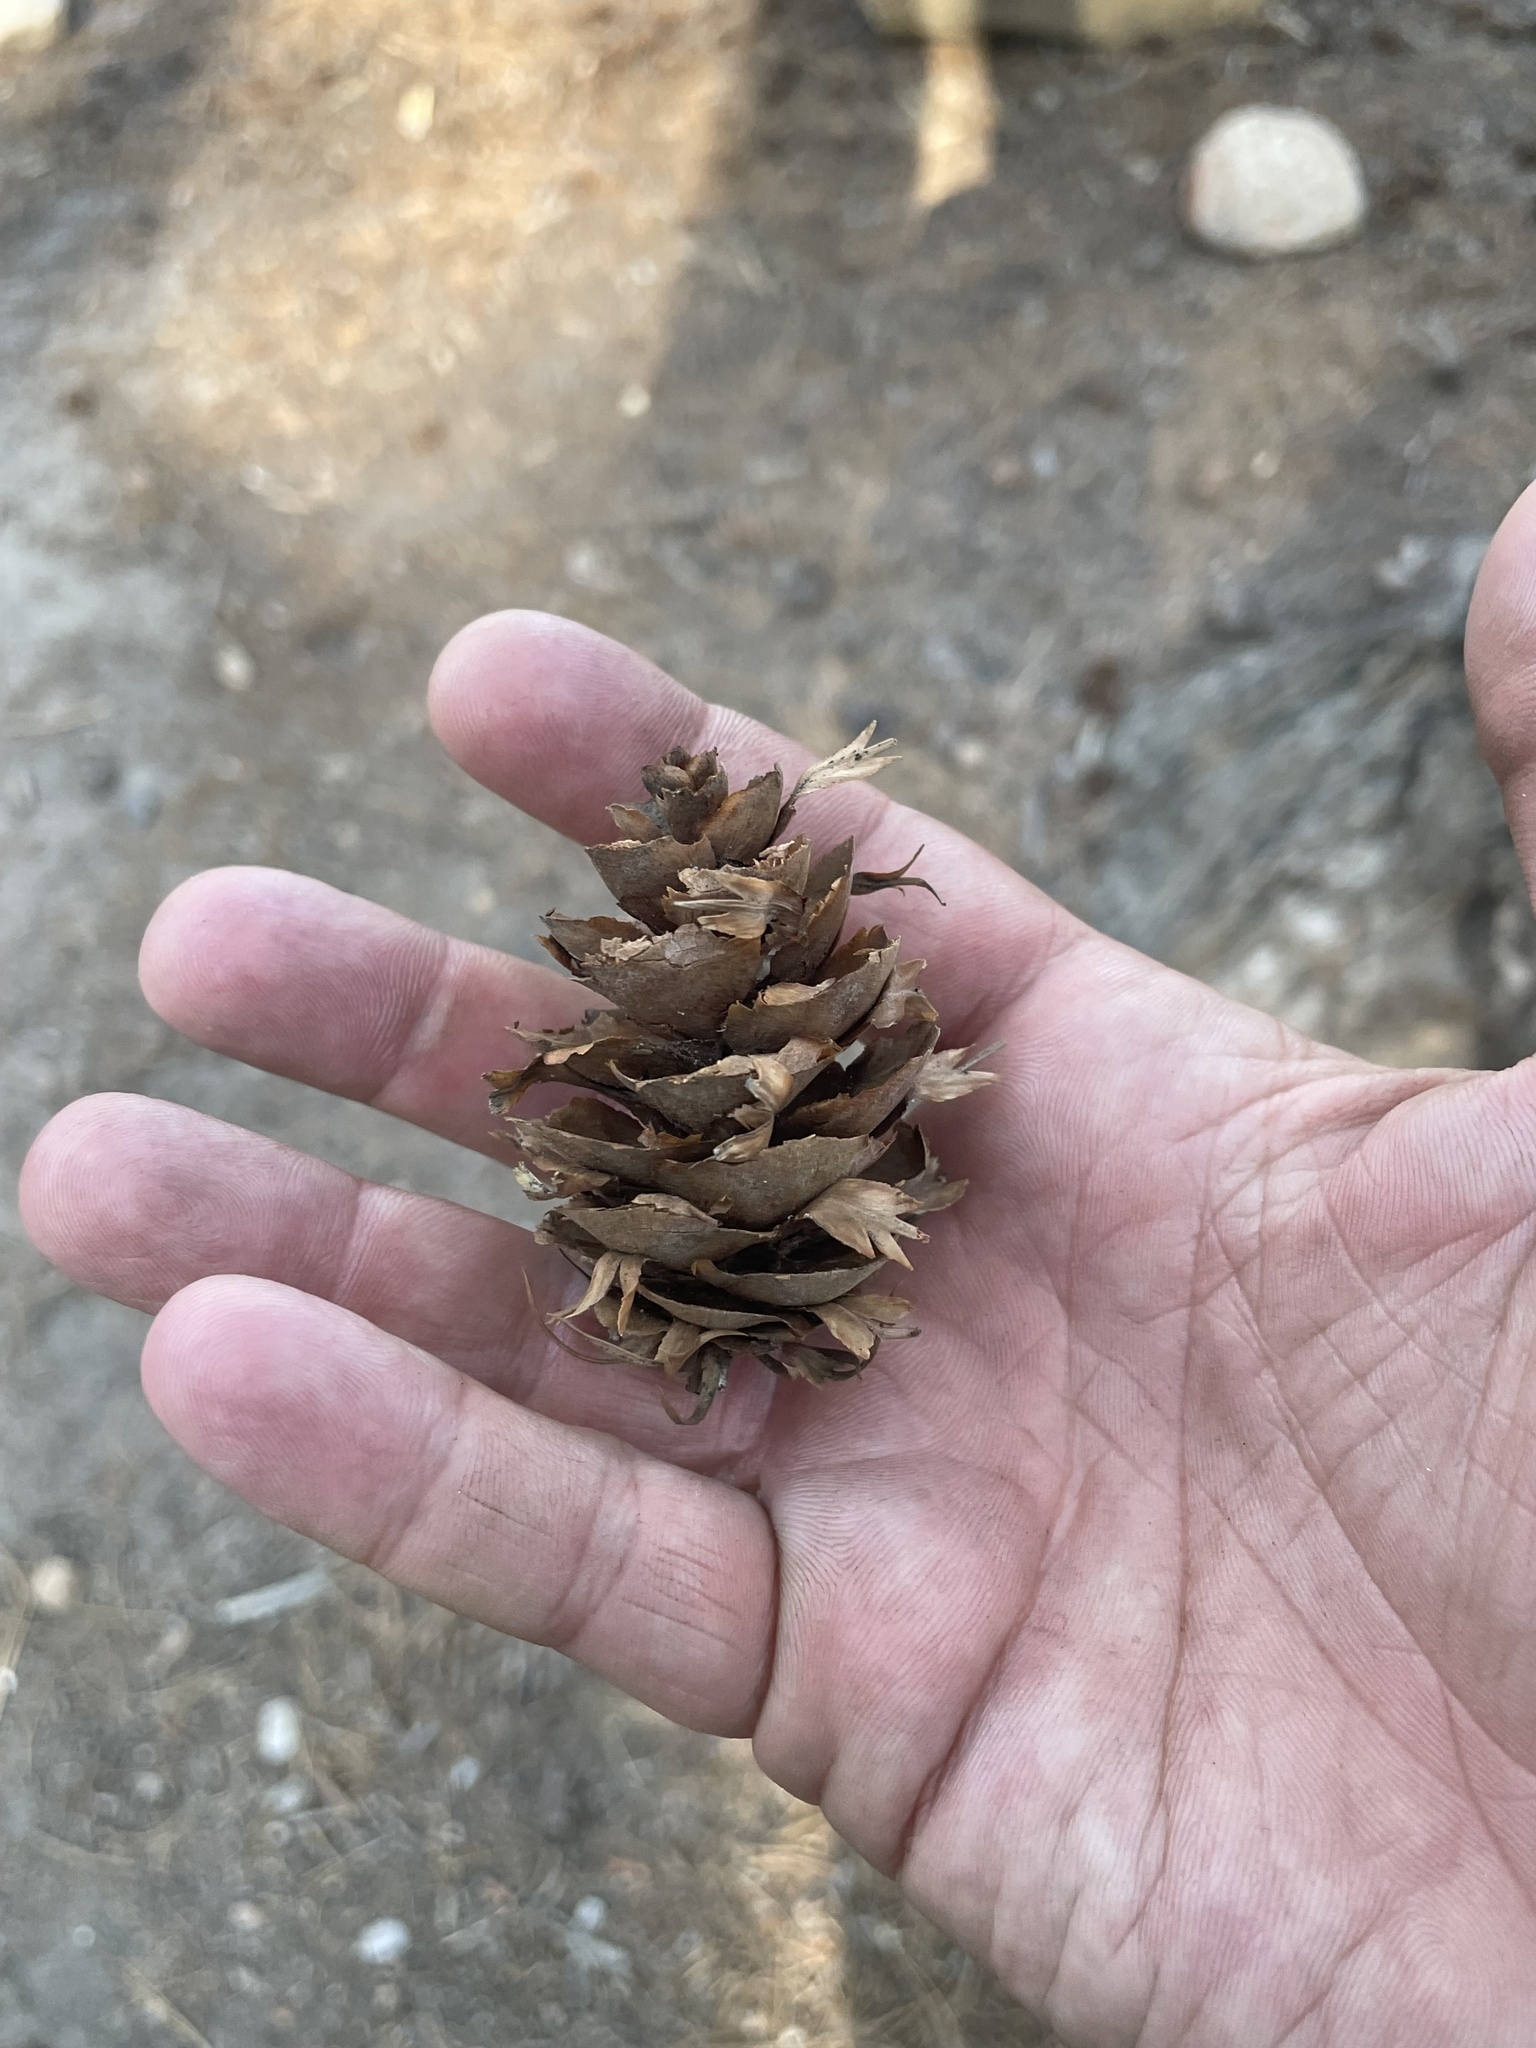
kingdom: Plantae
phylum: Tracheophyta
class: Pinopsida
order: Pinales
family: Pinaceae
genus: Pseudotsuga
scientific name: Pseudotsuga menziesii
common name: Douglas fir
